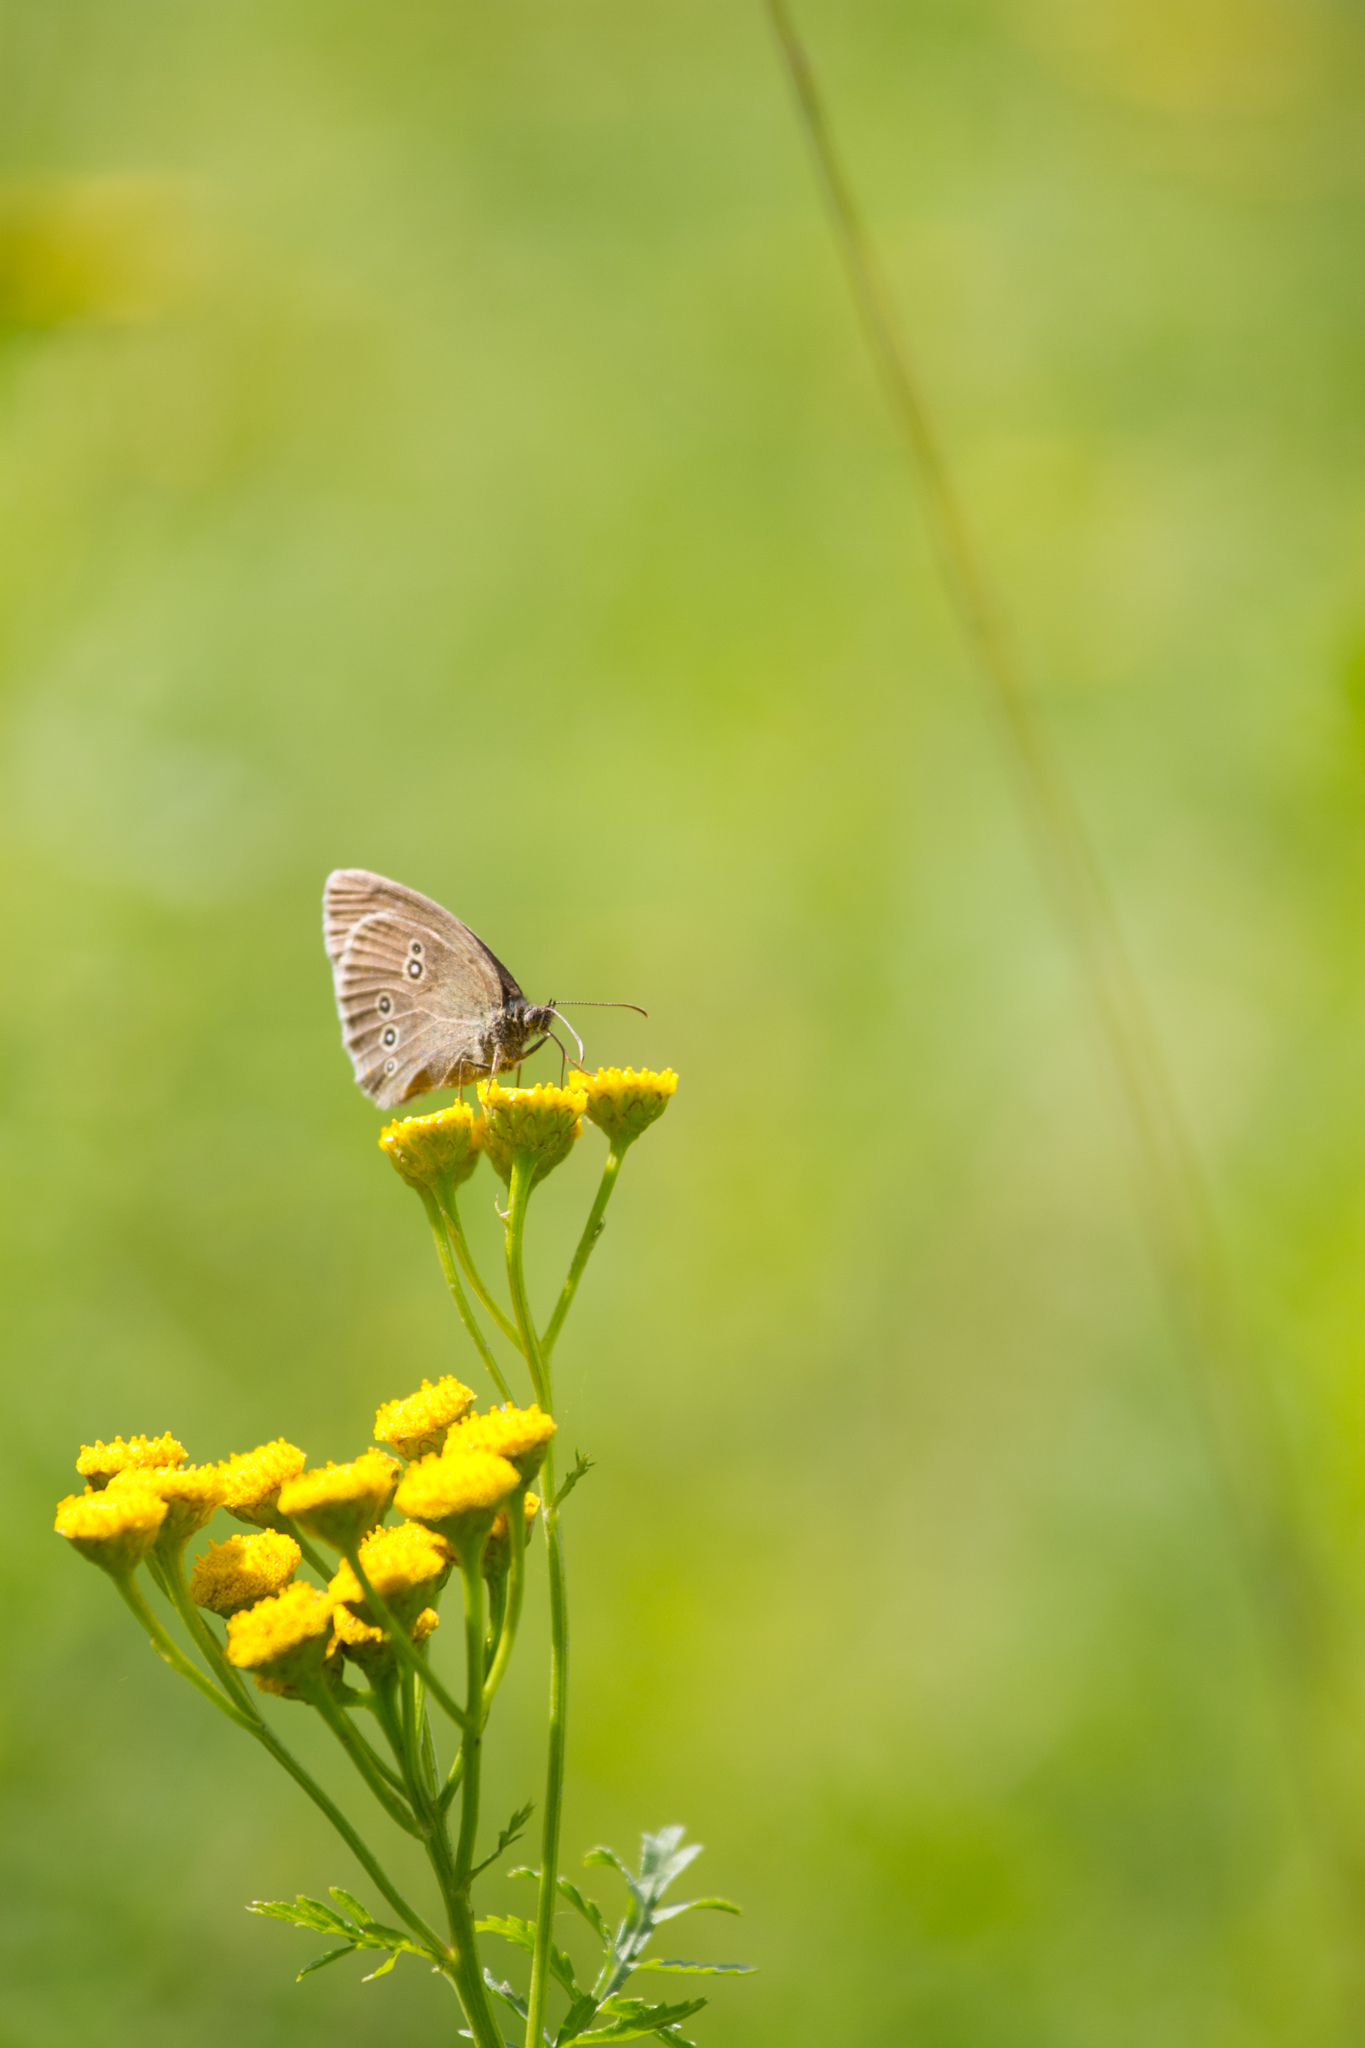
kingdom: Animalia
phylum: Arthropoda
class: Insecta
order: Lepidoptera
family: Nymphalidae
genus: Aphantopus
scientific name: Aphantopus hyperantus
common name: Ringlet
